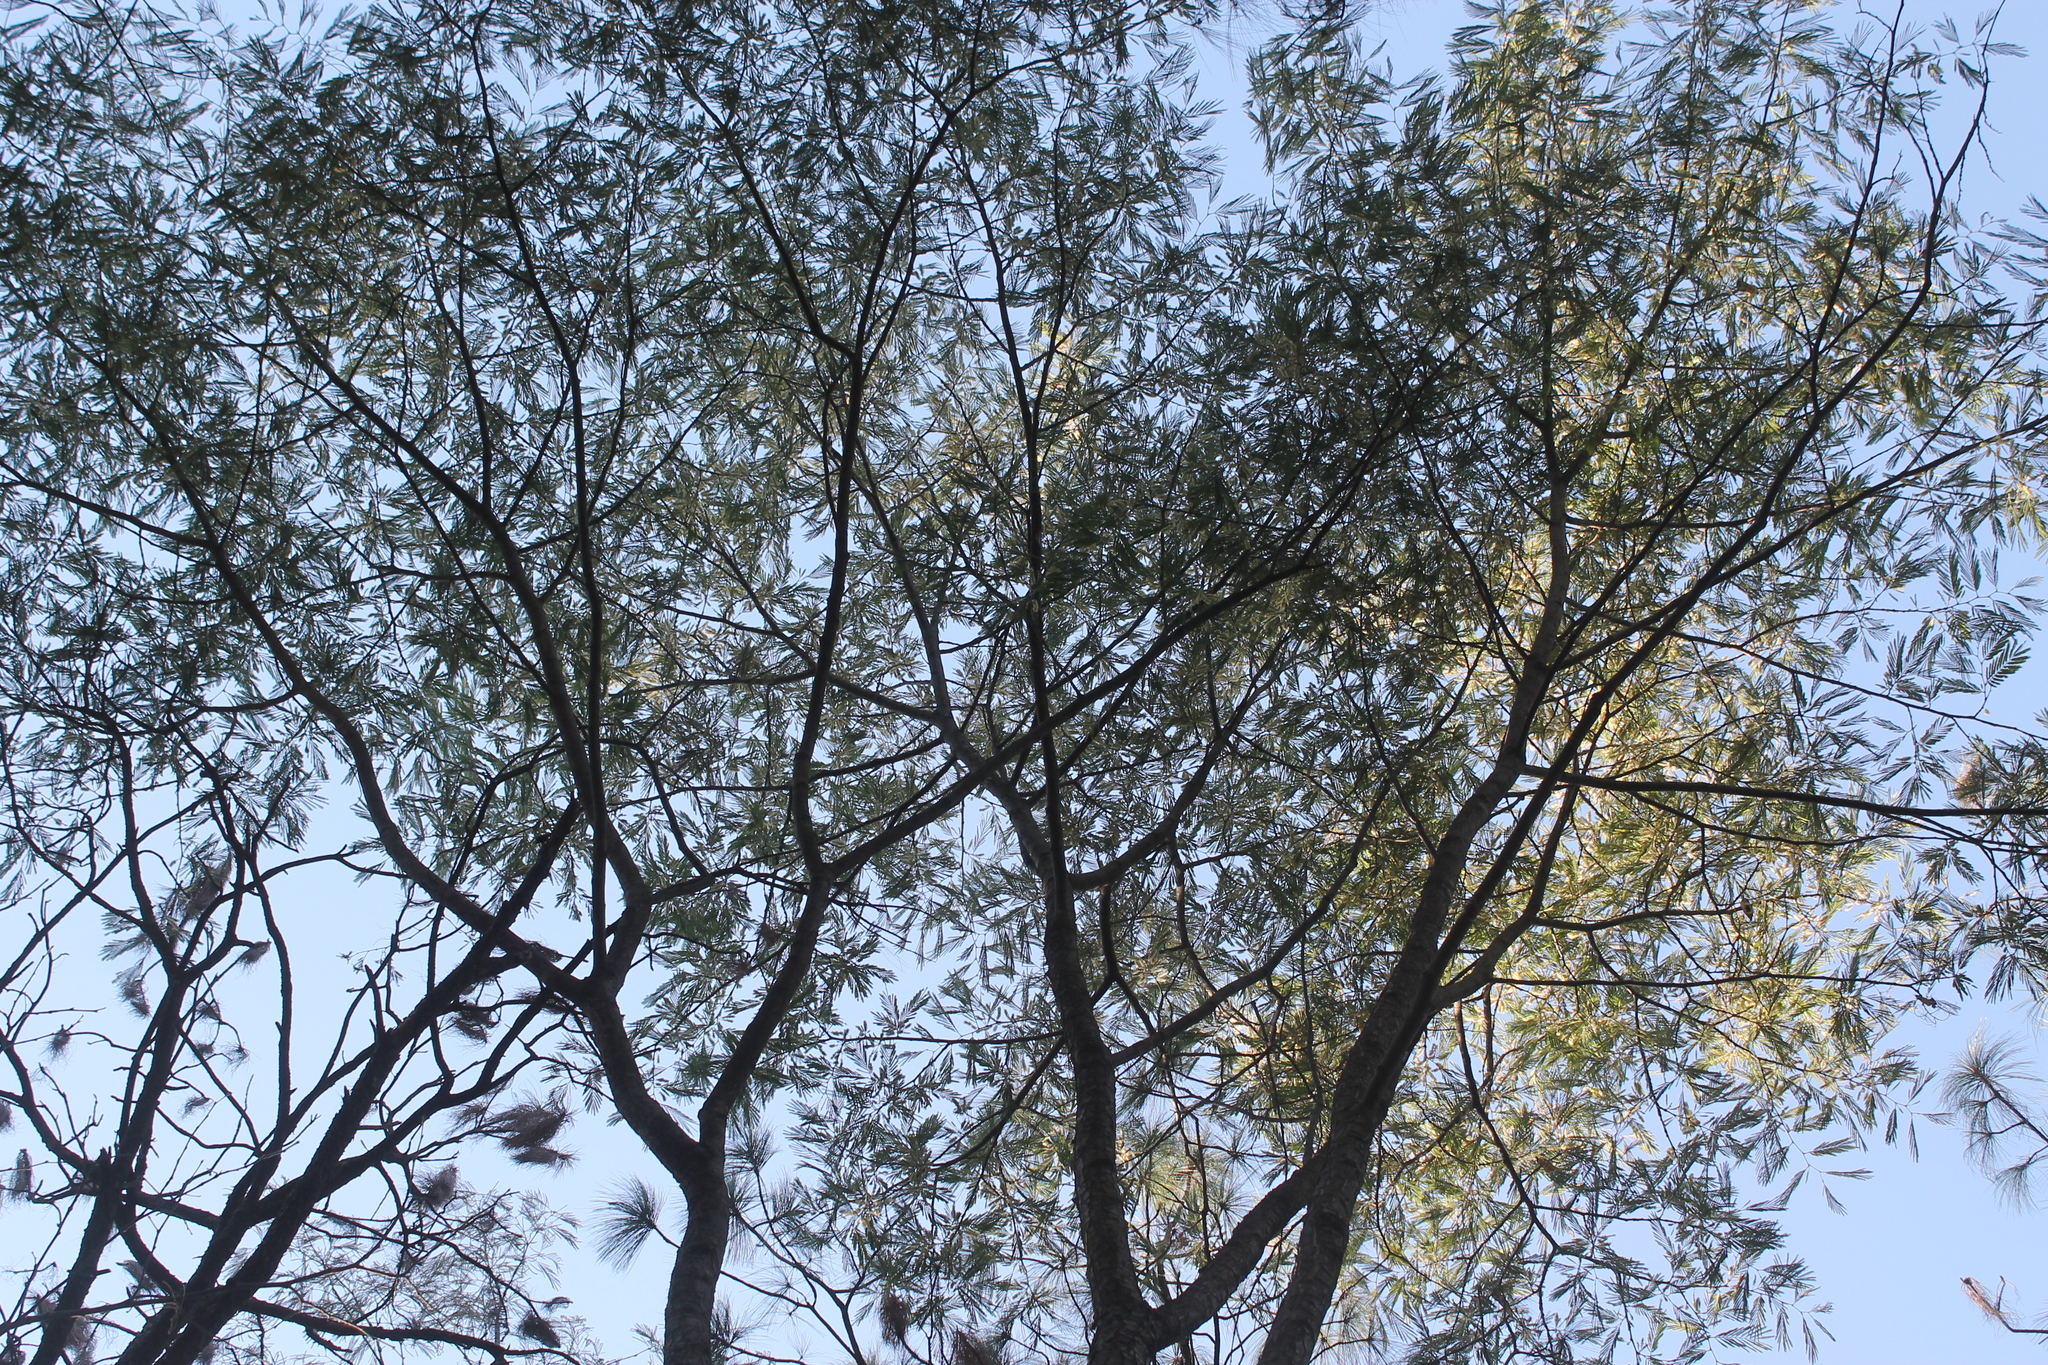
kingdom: Plantae
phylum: Tracheophyta
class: Magnoliopsida
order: Fabales
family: Fabaceae
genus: Lysiloma
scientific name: Lysiloma acapulcense
